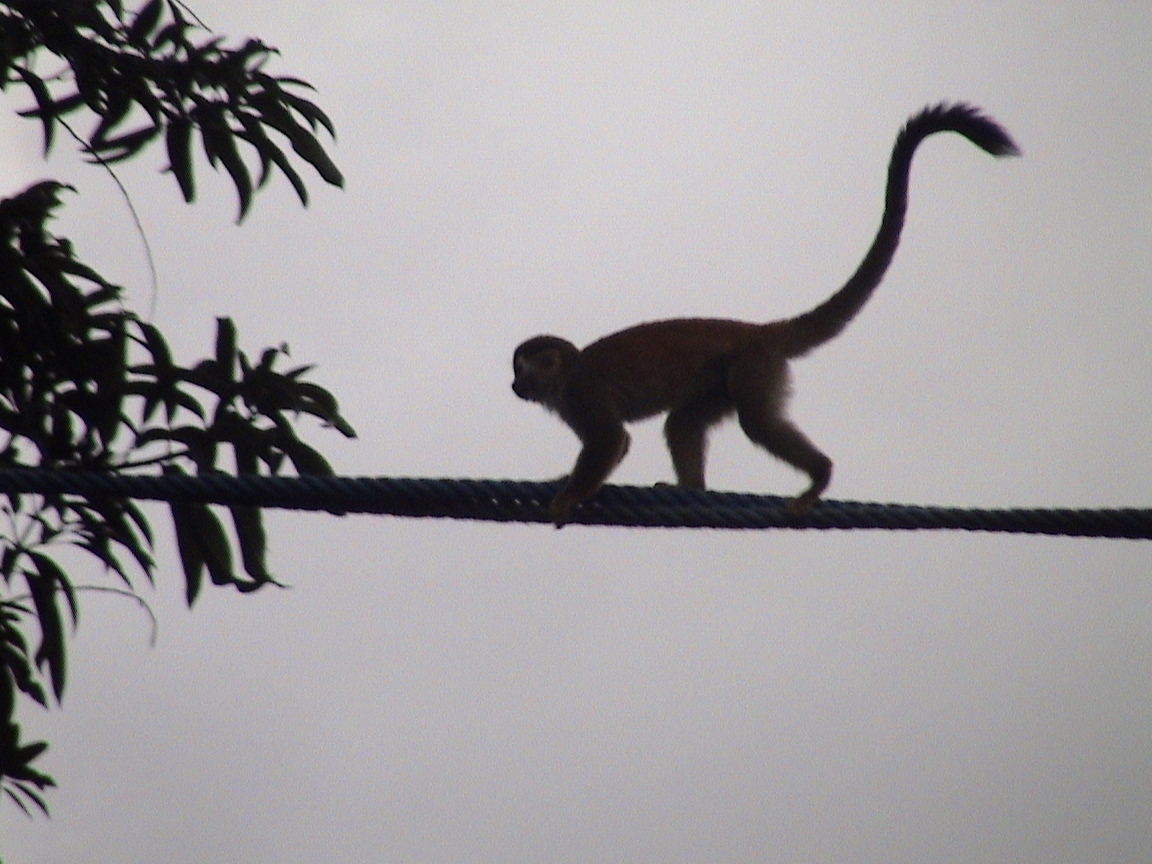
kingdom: Animalia
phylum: Chordata
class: Mammalia
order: Primates
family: Cebidae
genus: Saimiri
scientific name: Saimiri oerstedii
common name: Central american squirrel monkey
